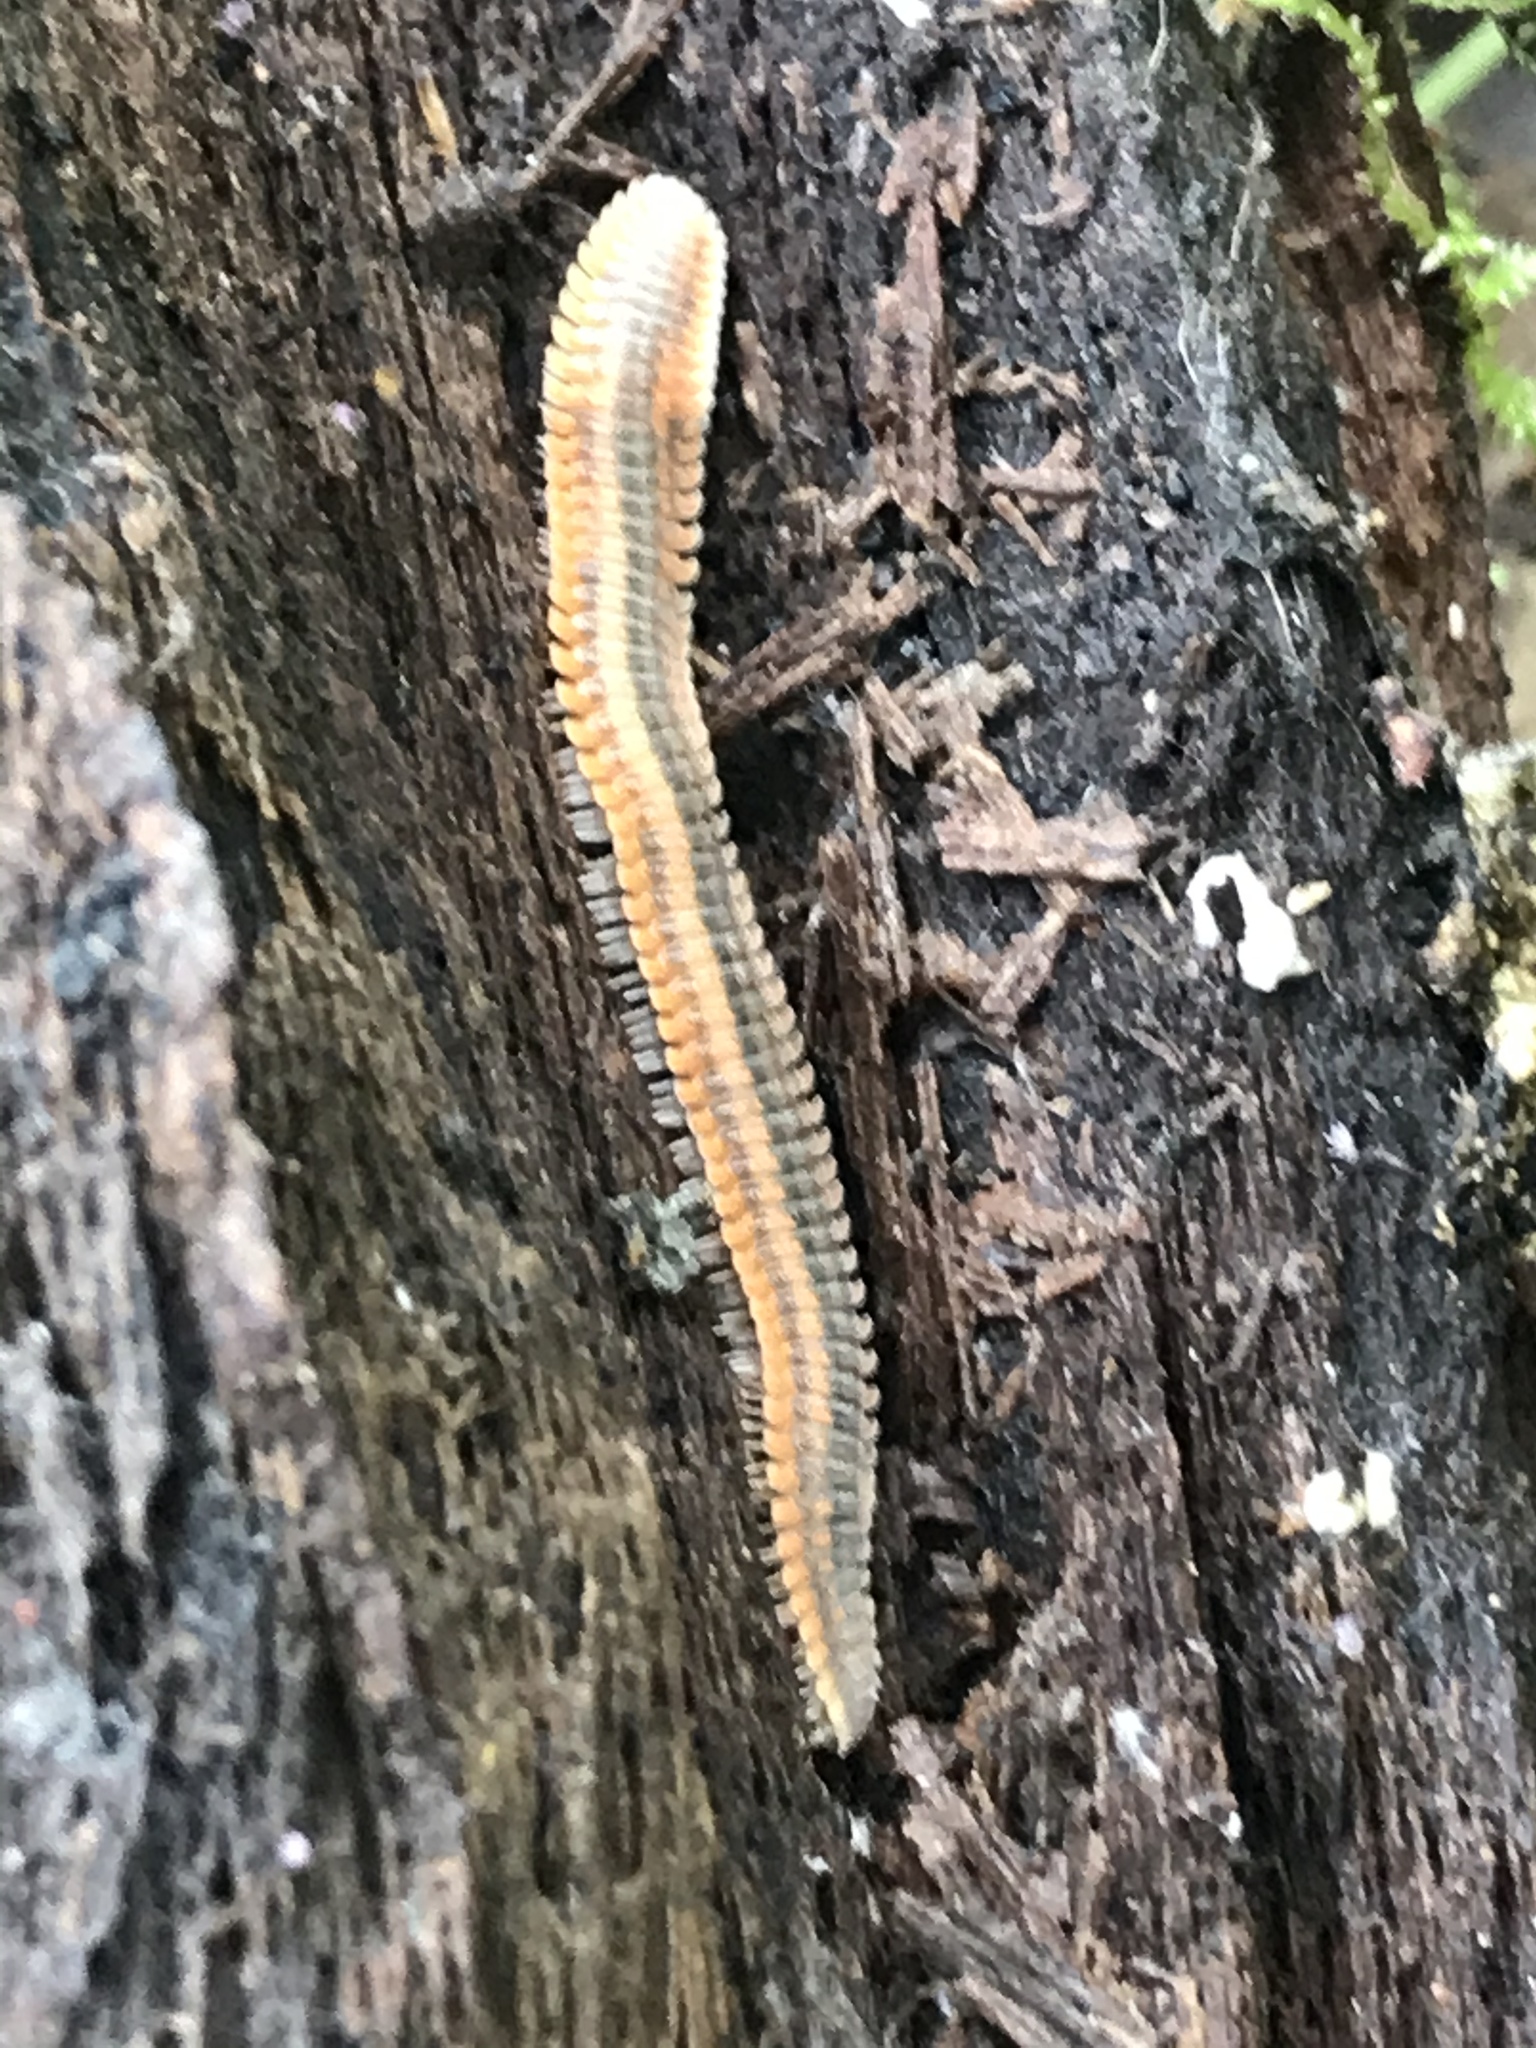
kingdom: Animalia
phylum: Arthropoda
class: Diplopoda
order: Platydesmida
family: Andrognathidae
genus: Brachycybe
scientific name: Brachycybe producta
